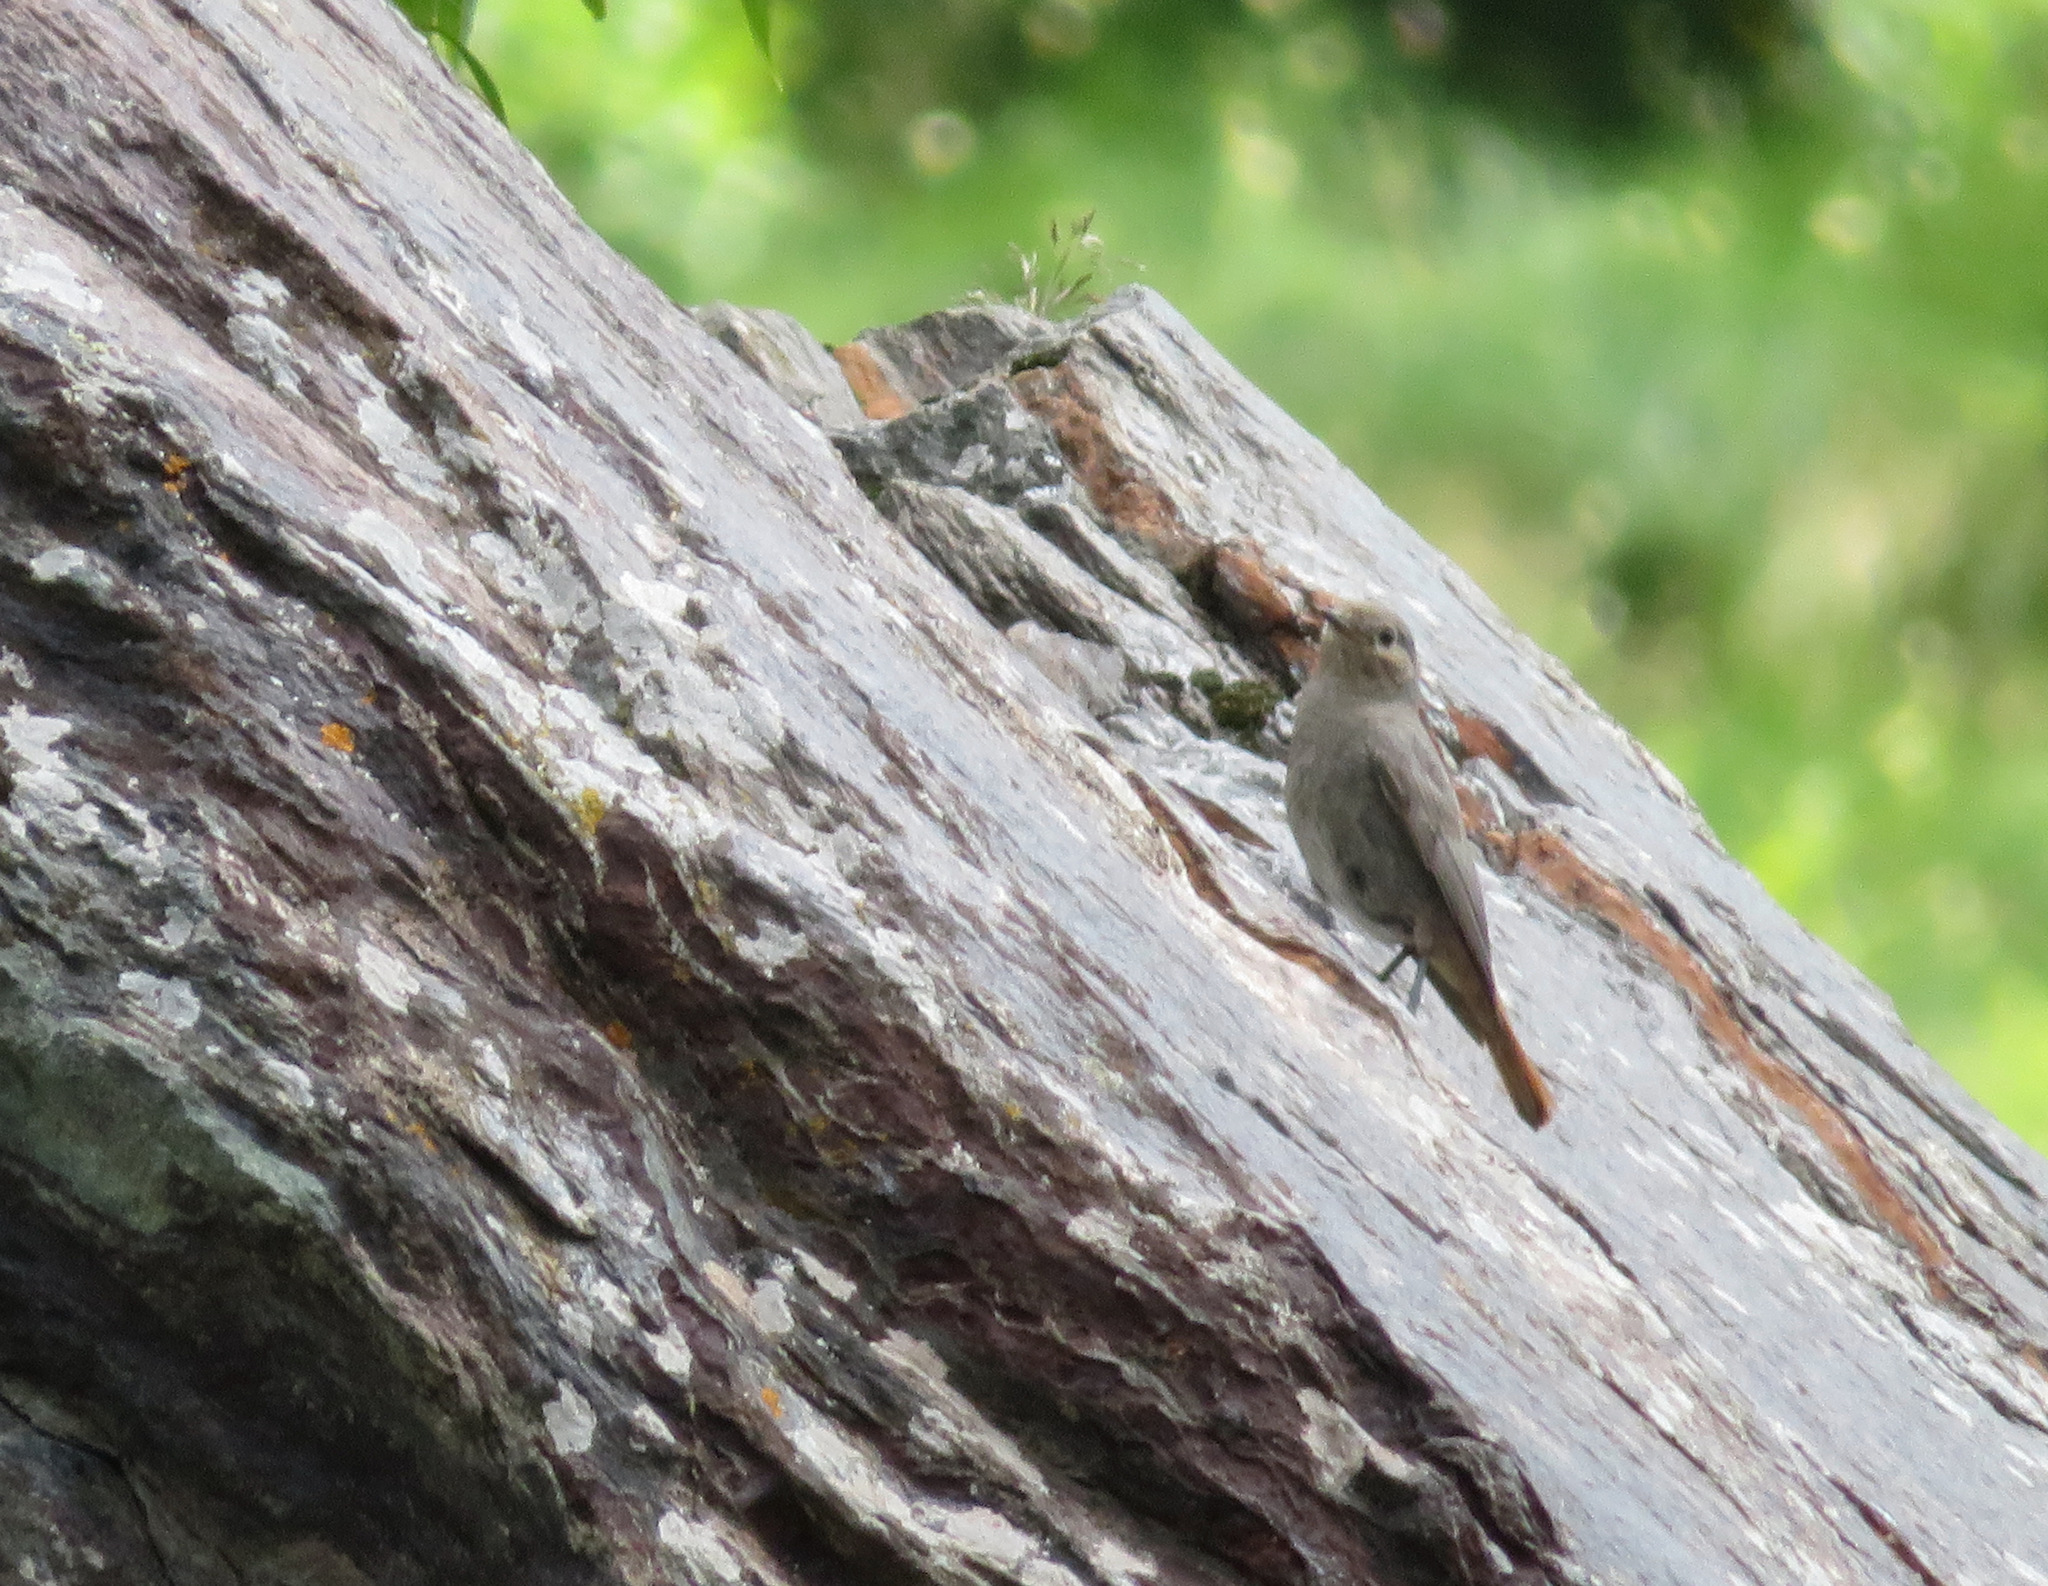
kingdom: Animalia
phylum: Chordata
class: Aves
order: Passeriformes
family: Muscicapidae
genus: Phoenicurus
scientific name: Phoenicurus ochruros
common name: Black redstart
